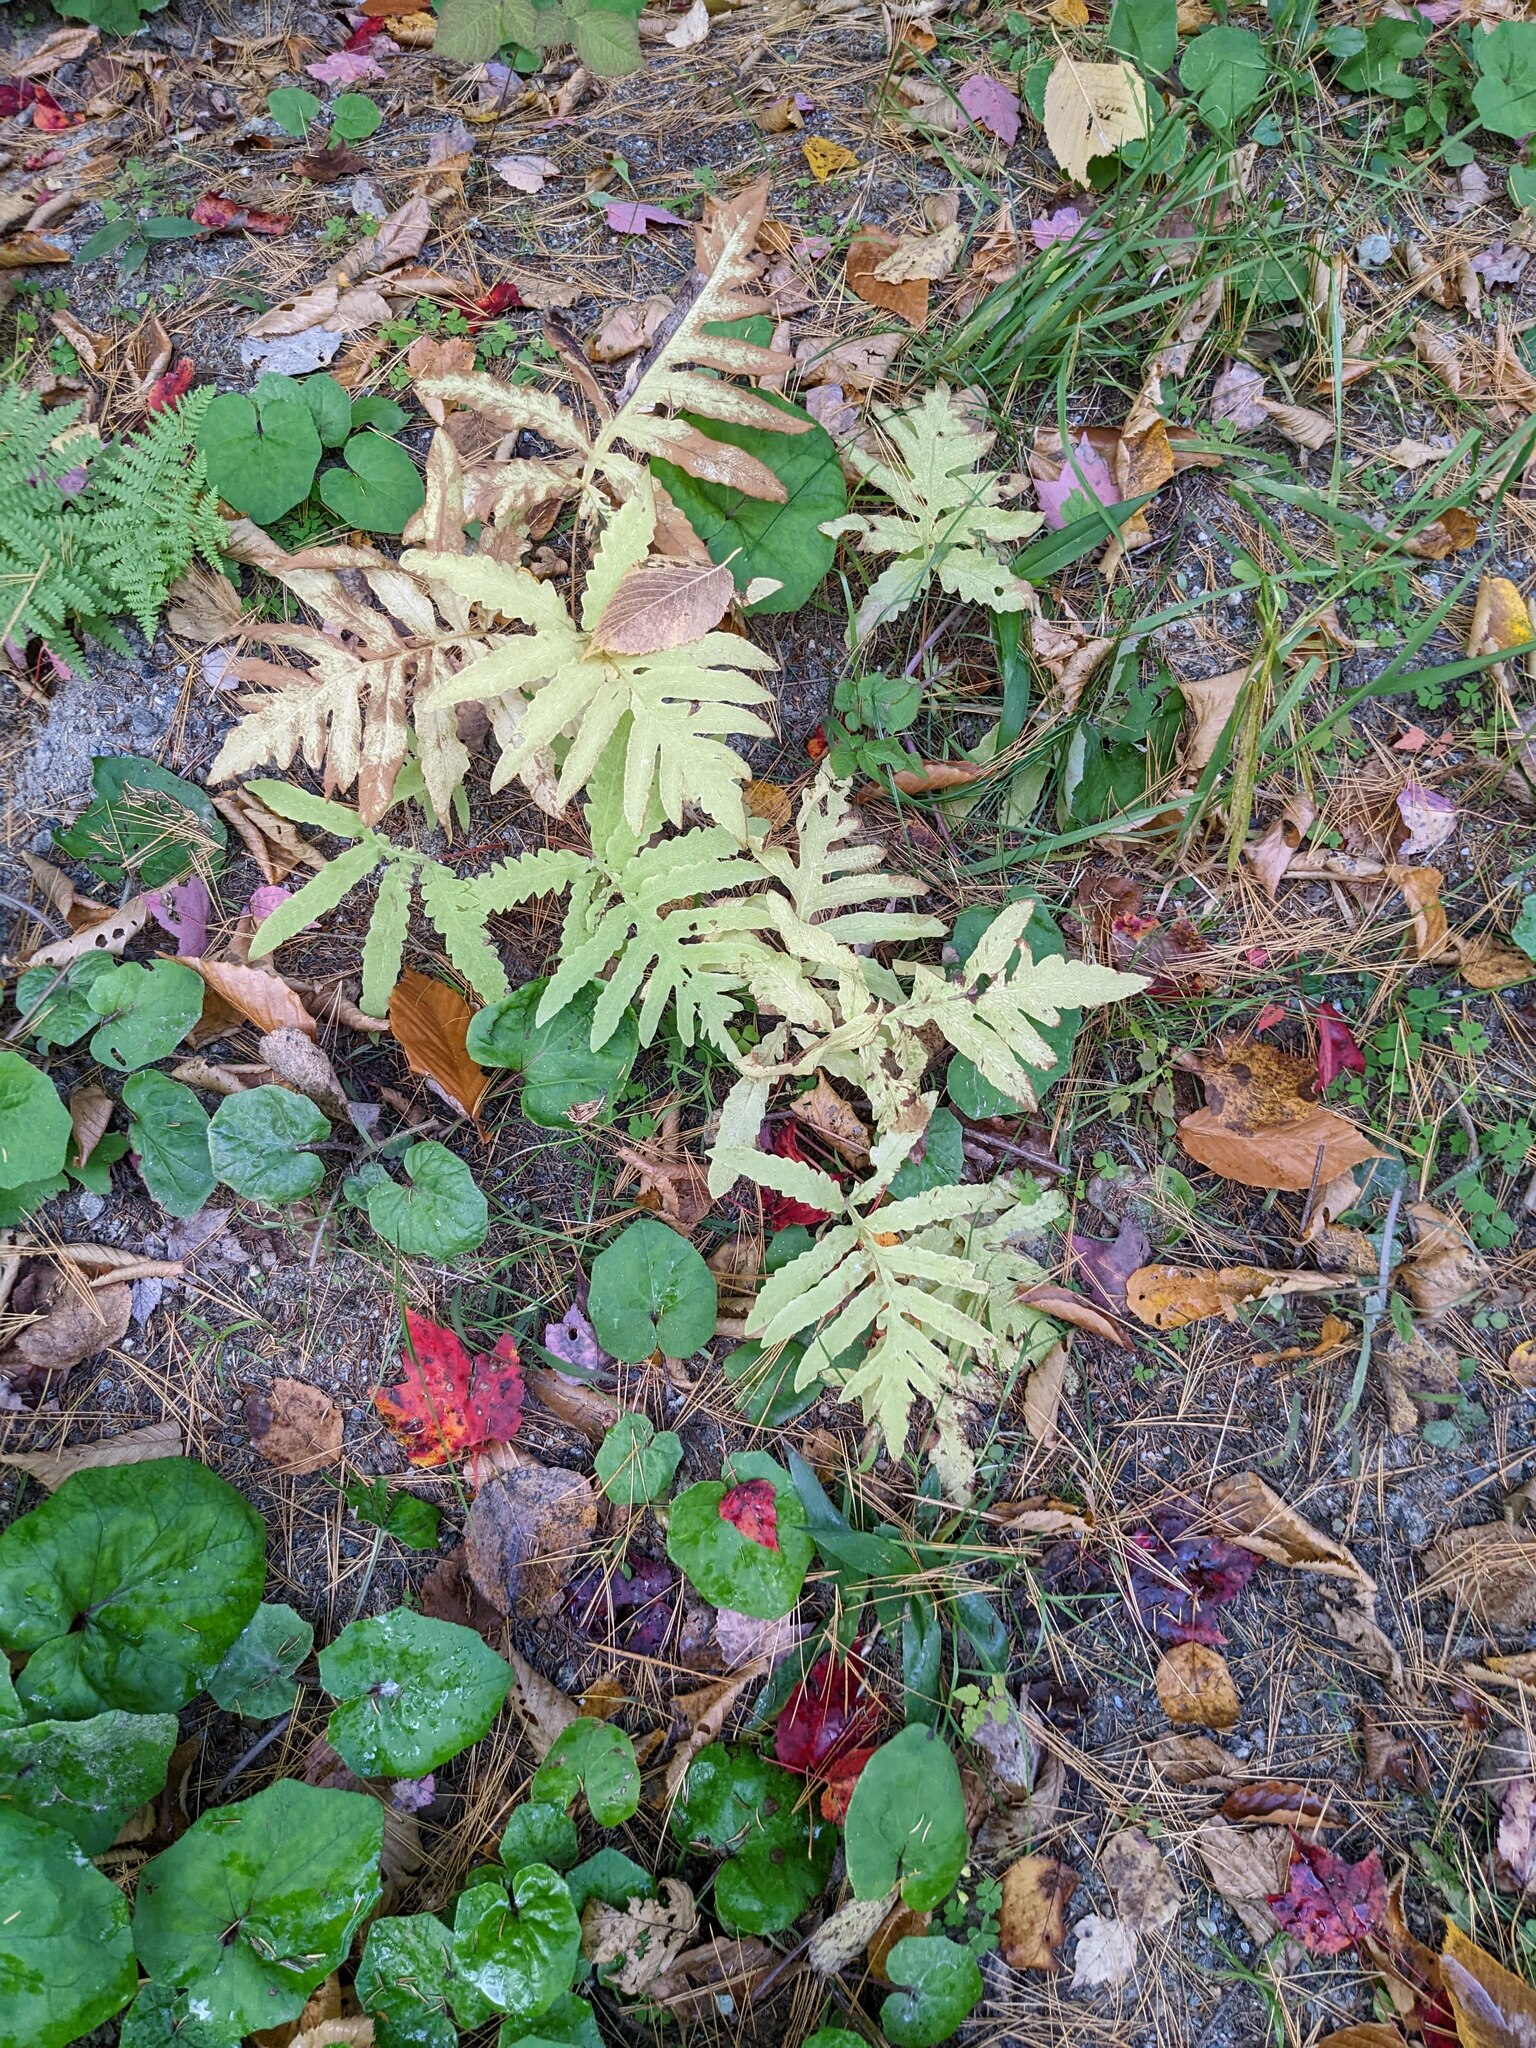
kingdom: Plantae
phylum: Tracheophyta
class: Polypodiopsida
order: Polypodiales
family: Onocleaceae
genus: Onoclea
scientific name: Onoclea sensibilis
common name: Sensitive fern
